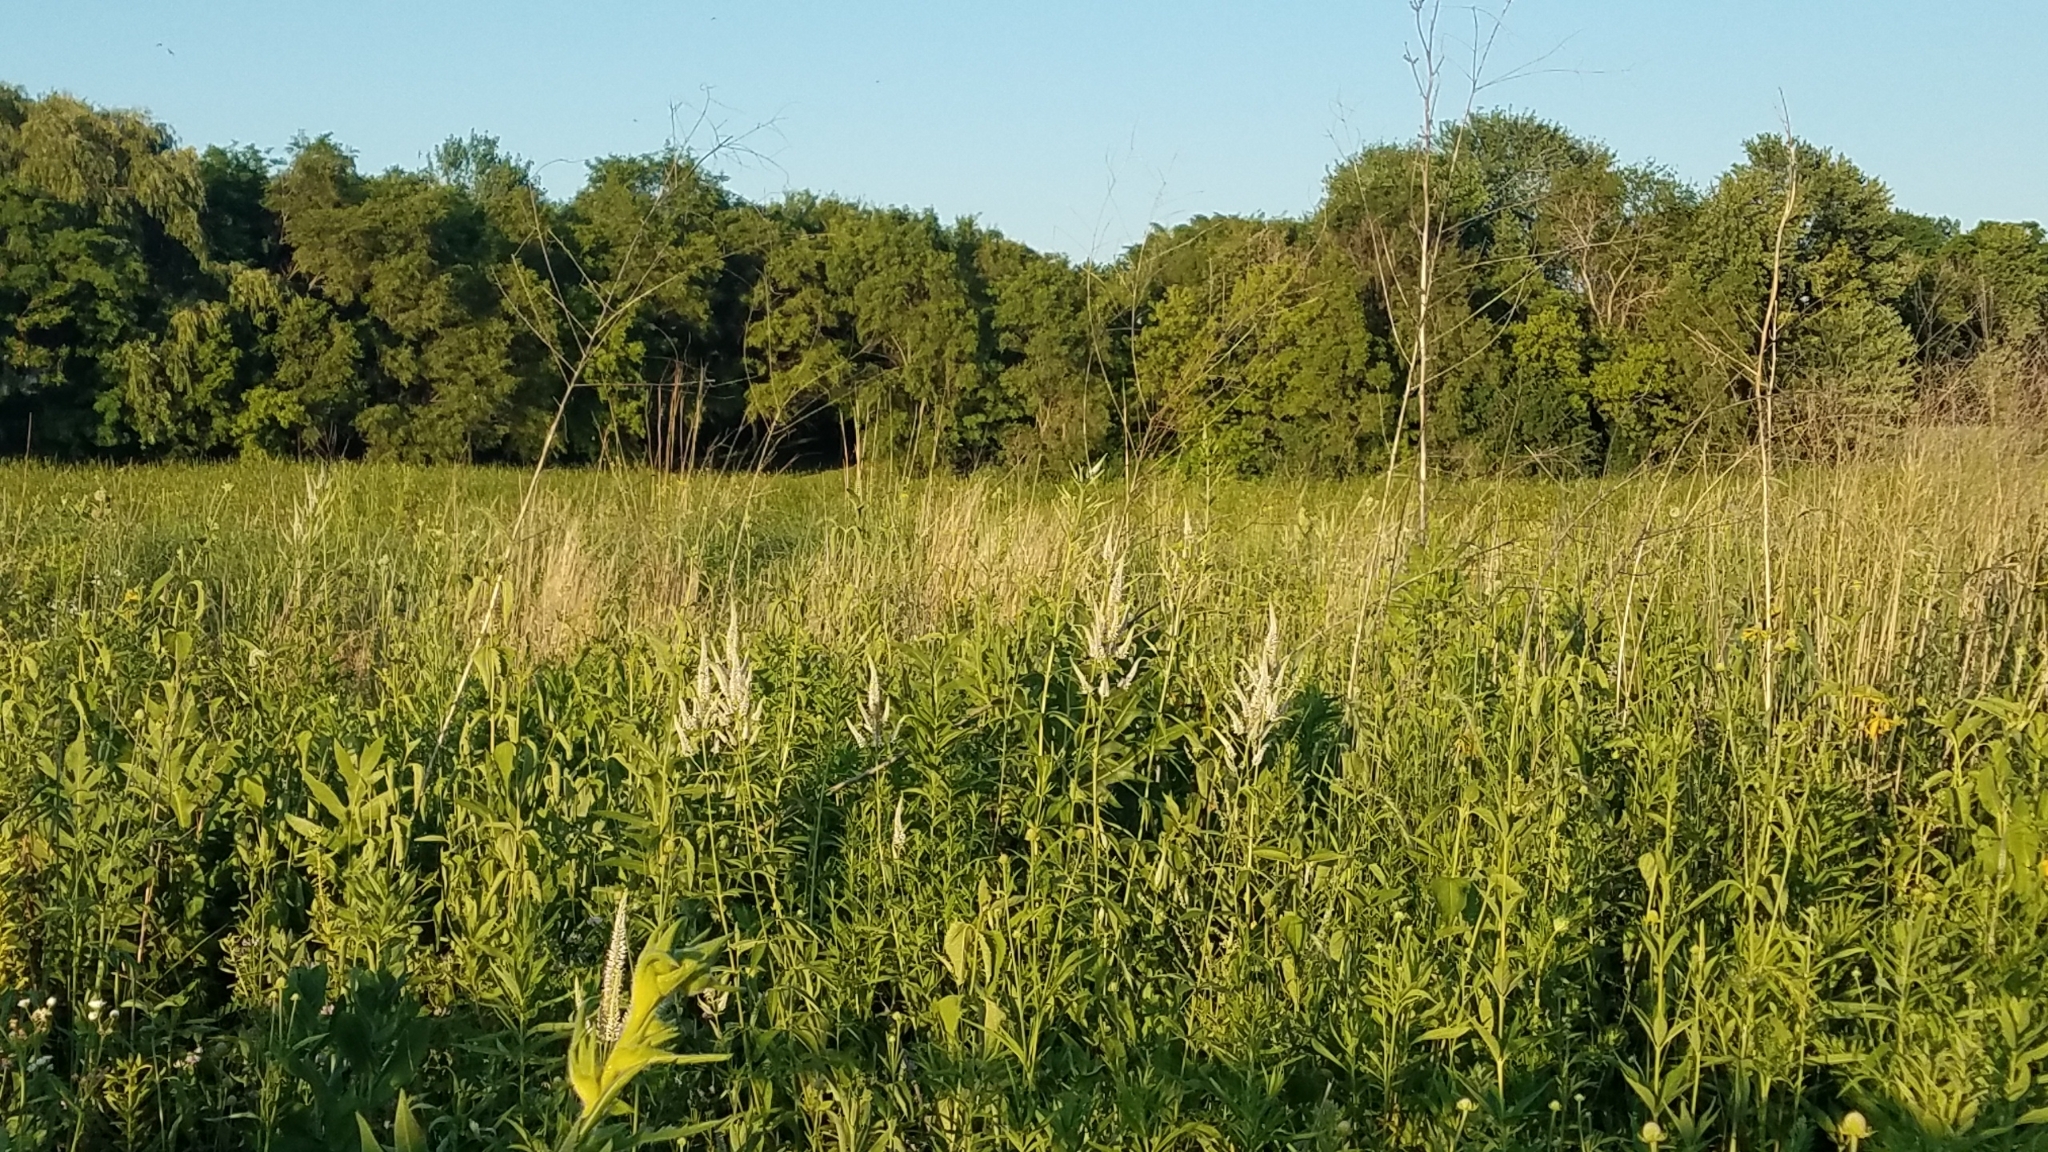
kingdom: Plantae
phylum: Tracheophyta
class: Magnoliopsida
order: Lamiales
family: Plantaginaceae
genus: Veronicastrum
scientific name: Veronicastrum virginicum
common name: Blackroot
